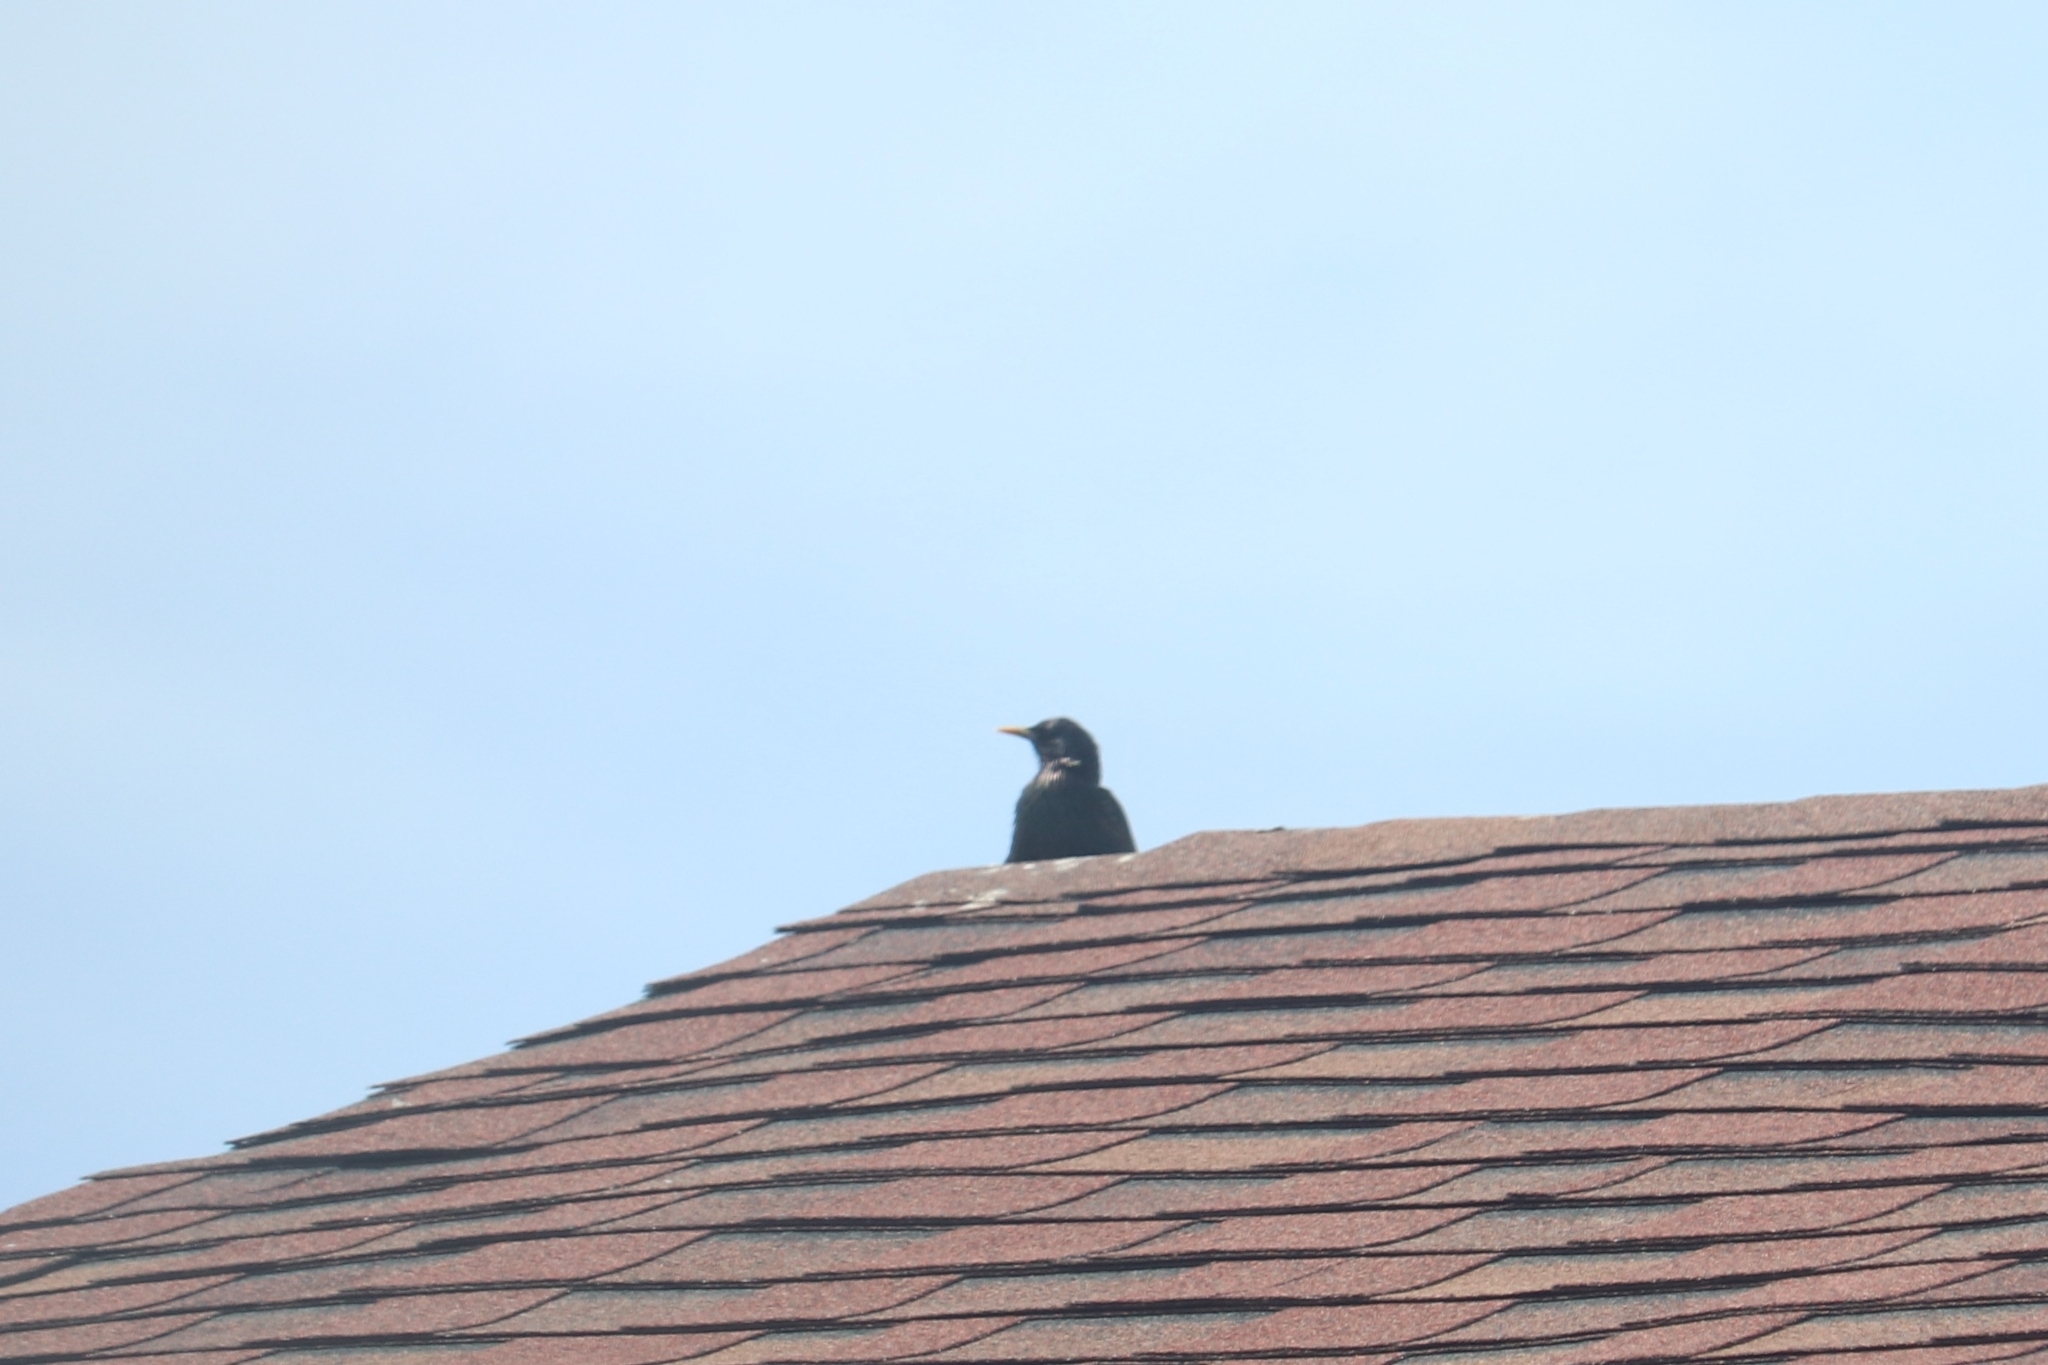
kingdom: Animalia
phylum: Chordata
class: Aves
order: Passeriformes
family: Sturnidae
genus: Sturnus
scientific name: Sturnus vulgaris
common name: Common starling
